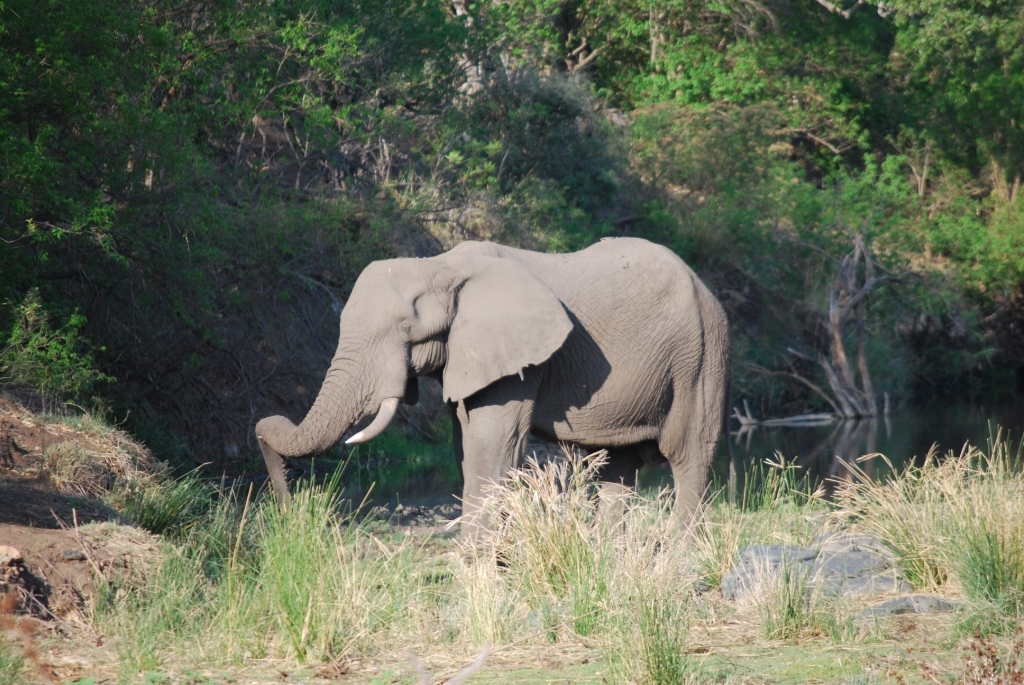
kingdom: Animalia
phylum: Chordata
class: Mammalia
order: Proboscidea
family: Elephantidae
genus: Loxodonta
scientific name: Loxodonta africana
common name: African elephant
